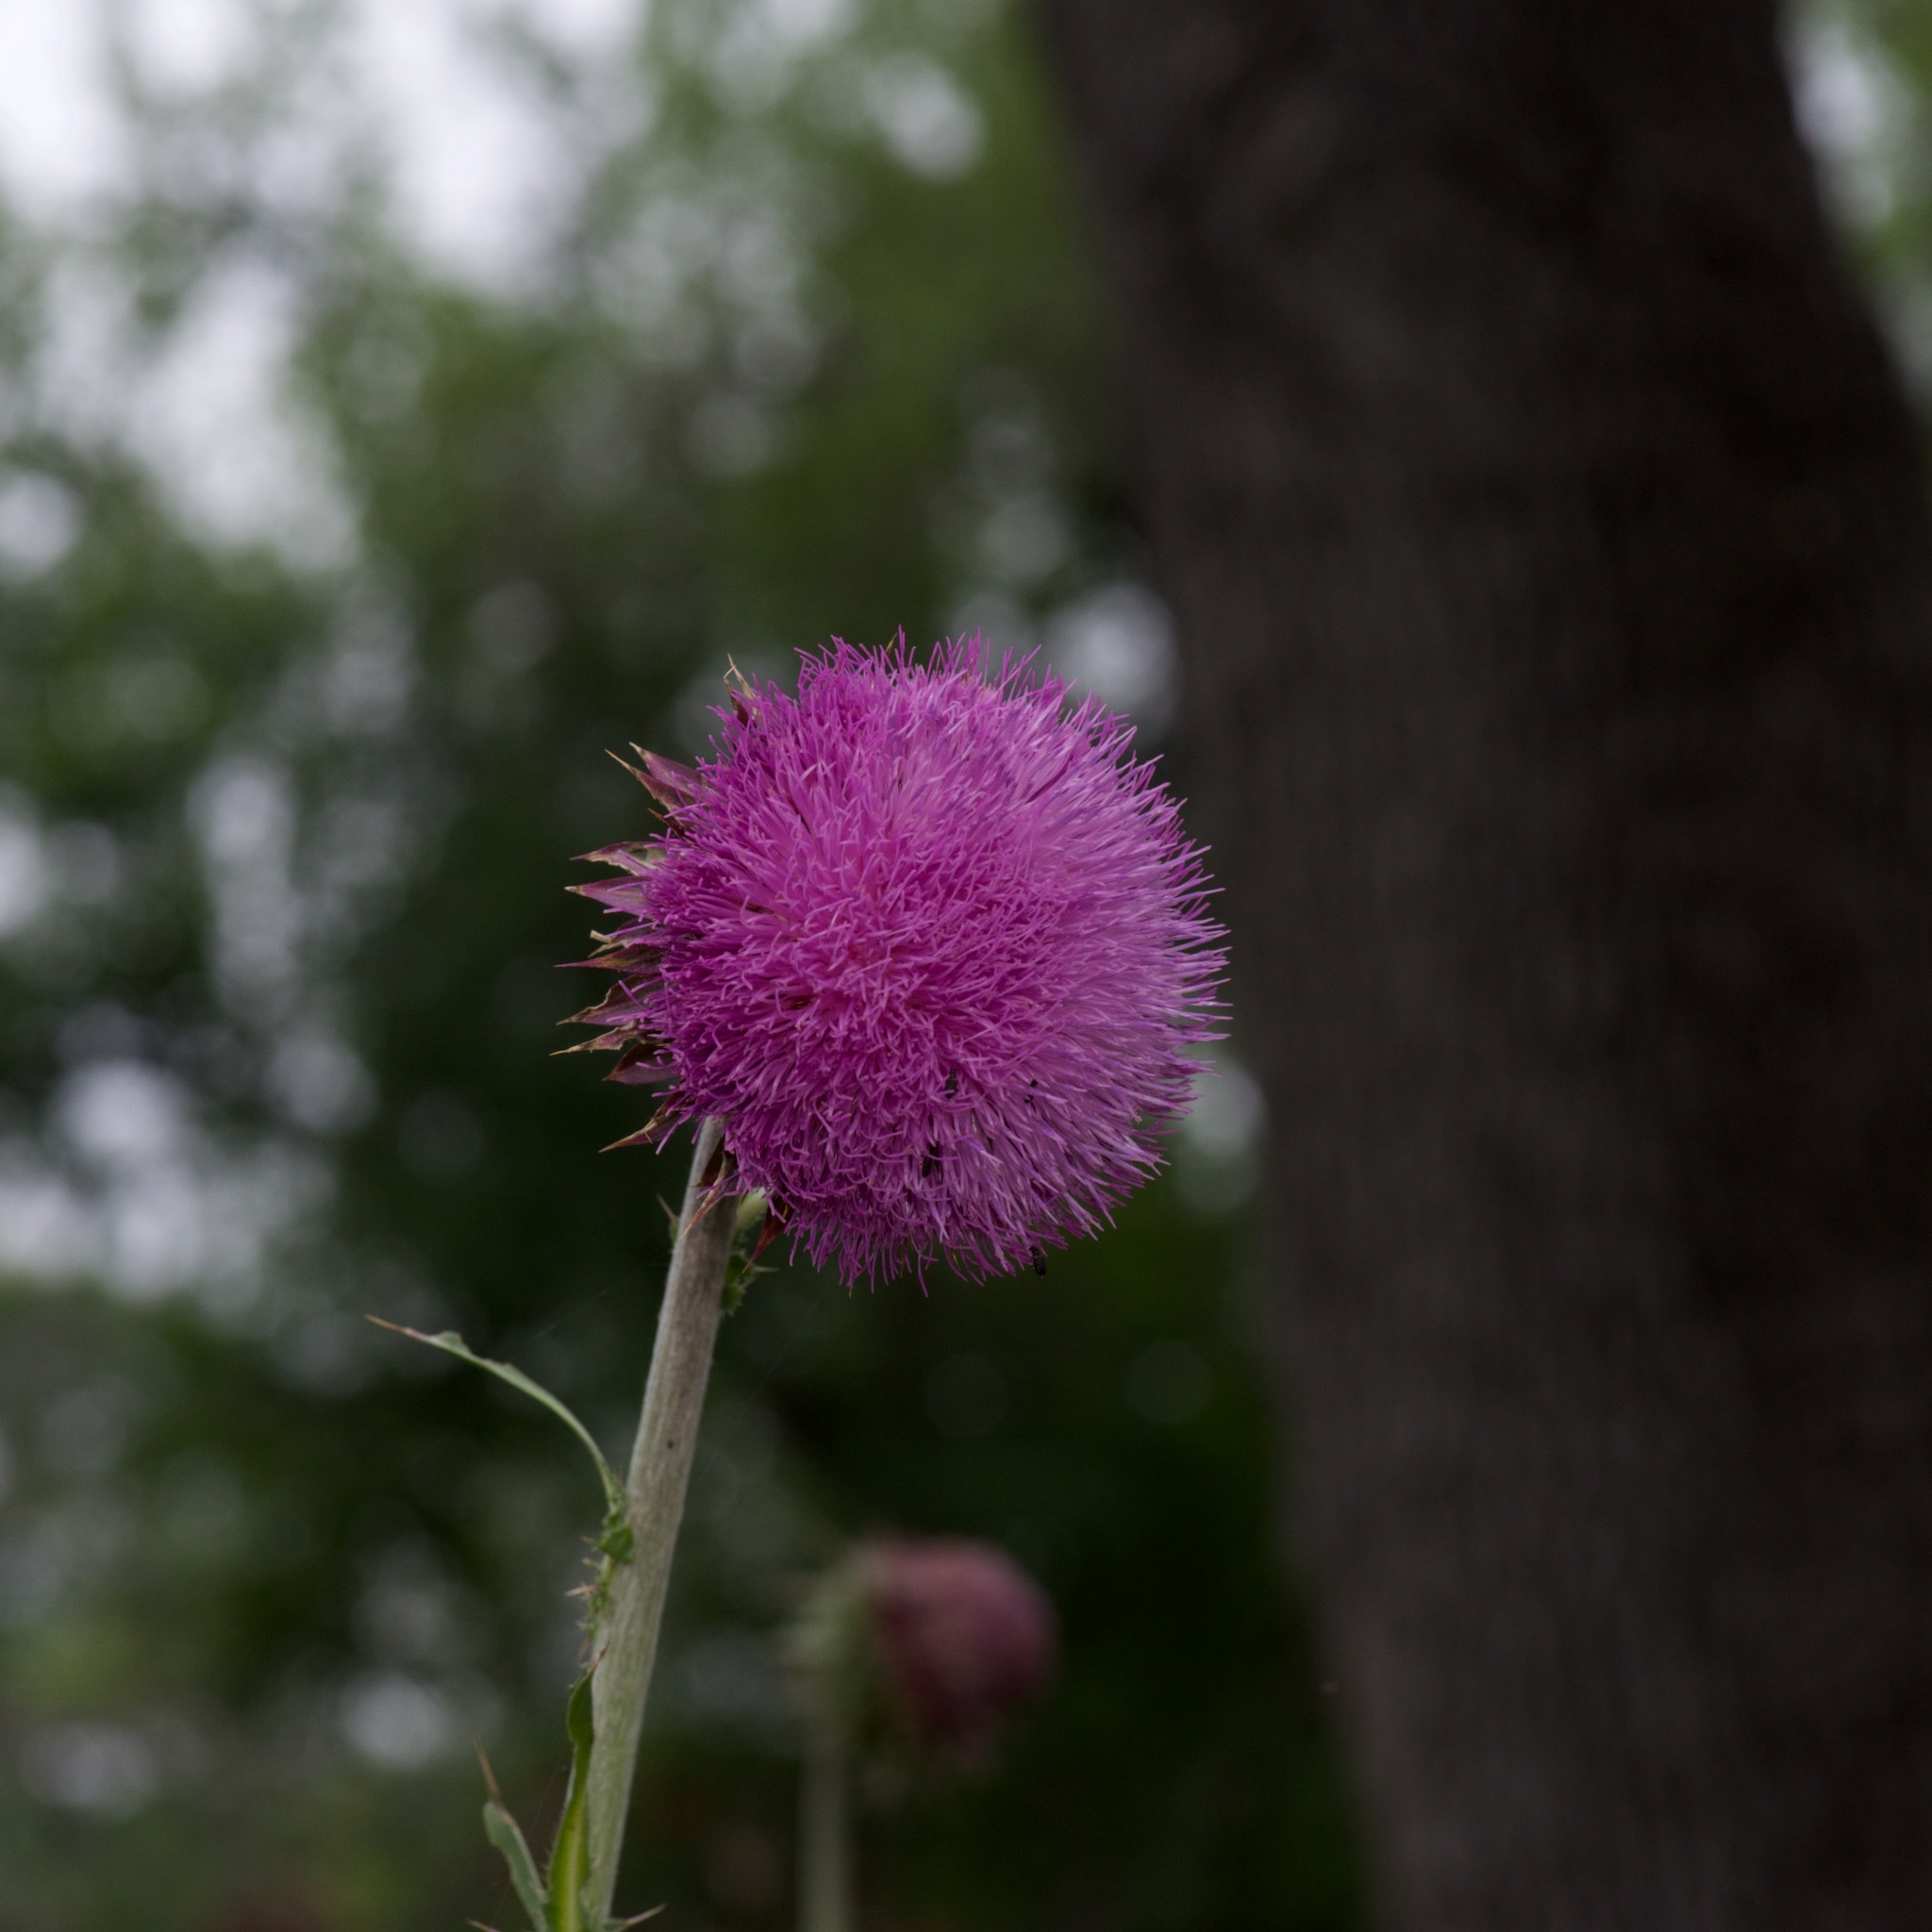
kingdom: Plantae
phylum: Tracheophyta
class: Magnoliopsida
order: Asterales
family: Asteraceae
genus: Carduus
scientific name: Carduus nutans
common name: Musk thistle
